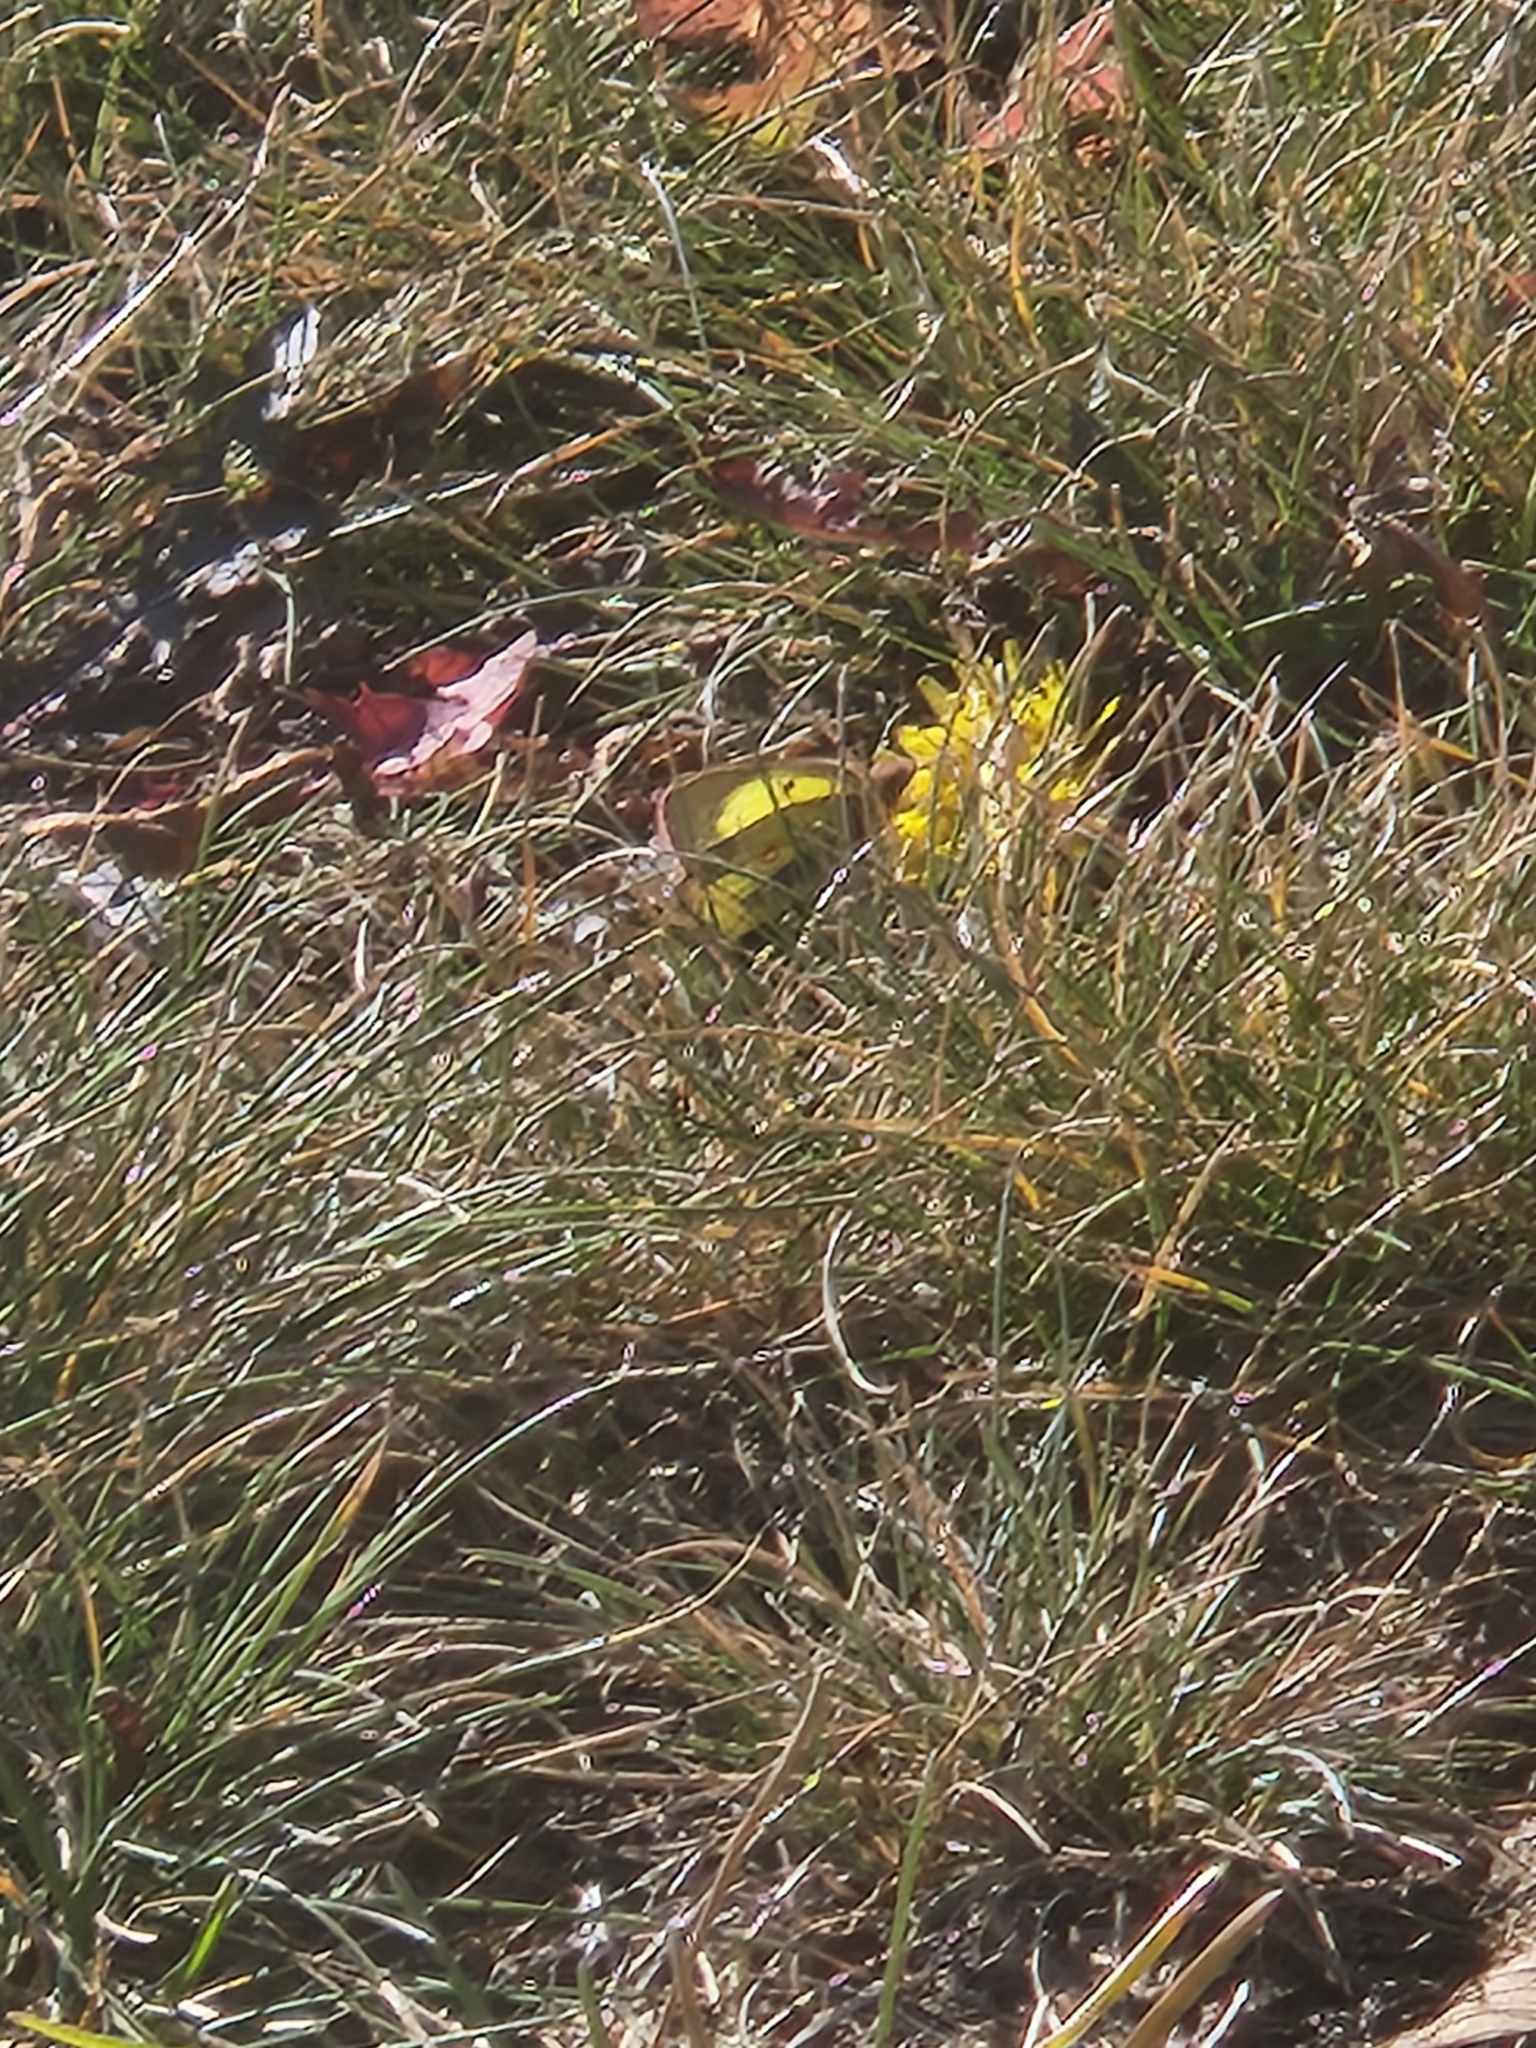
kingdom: Animalia
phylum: Arthropoda
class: Insecta
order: Lepidoptera
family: Pieridae
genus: Colias
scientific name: Colias philodice
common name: Clouded sulphur
